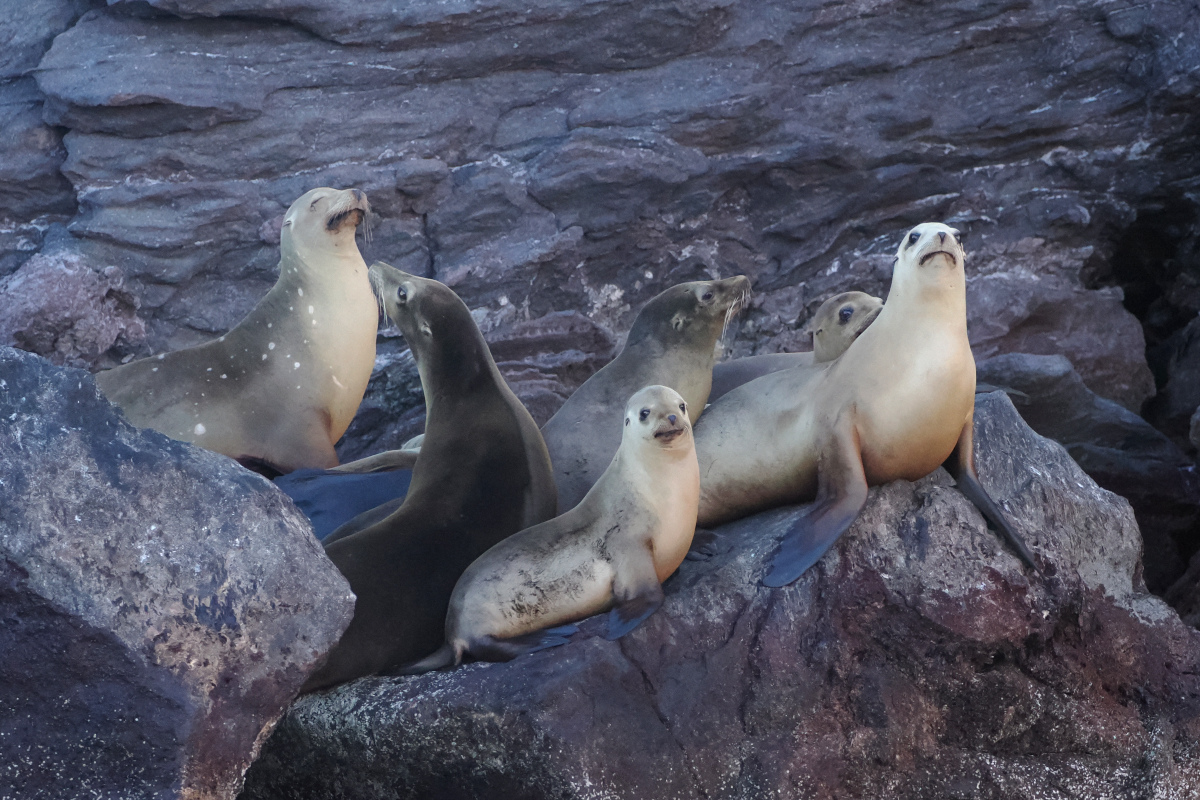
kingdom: Animalia
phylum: Chordata
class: Mammalia
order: Carnivora
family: Otariidae
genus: Zalophus
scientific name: Zalophus californianus
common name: California sea lion
